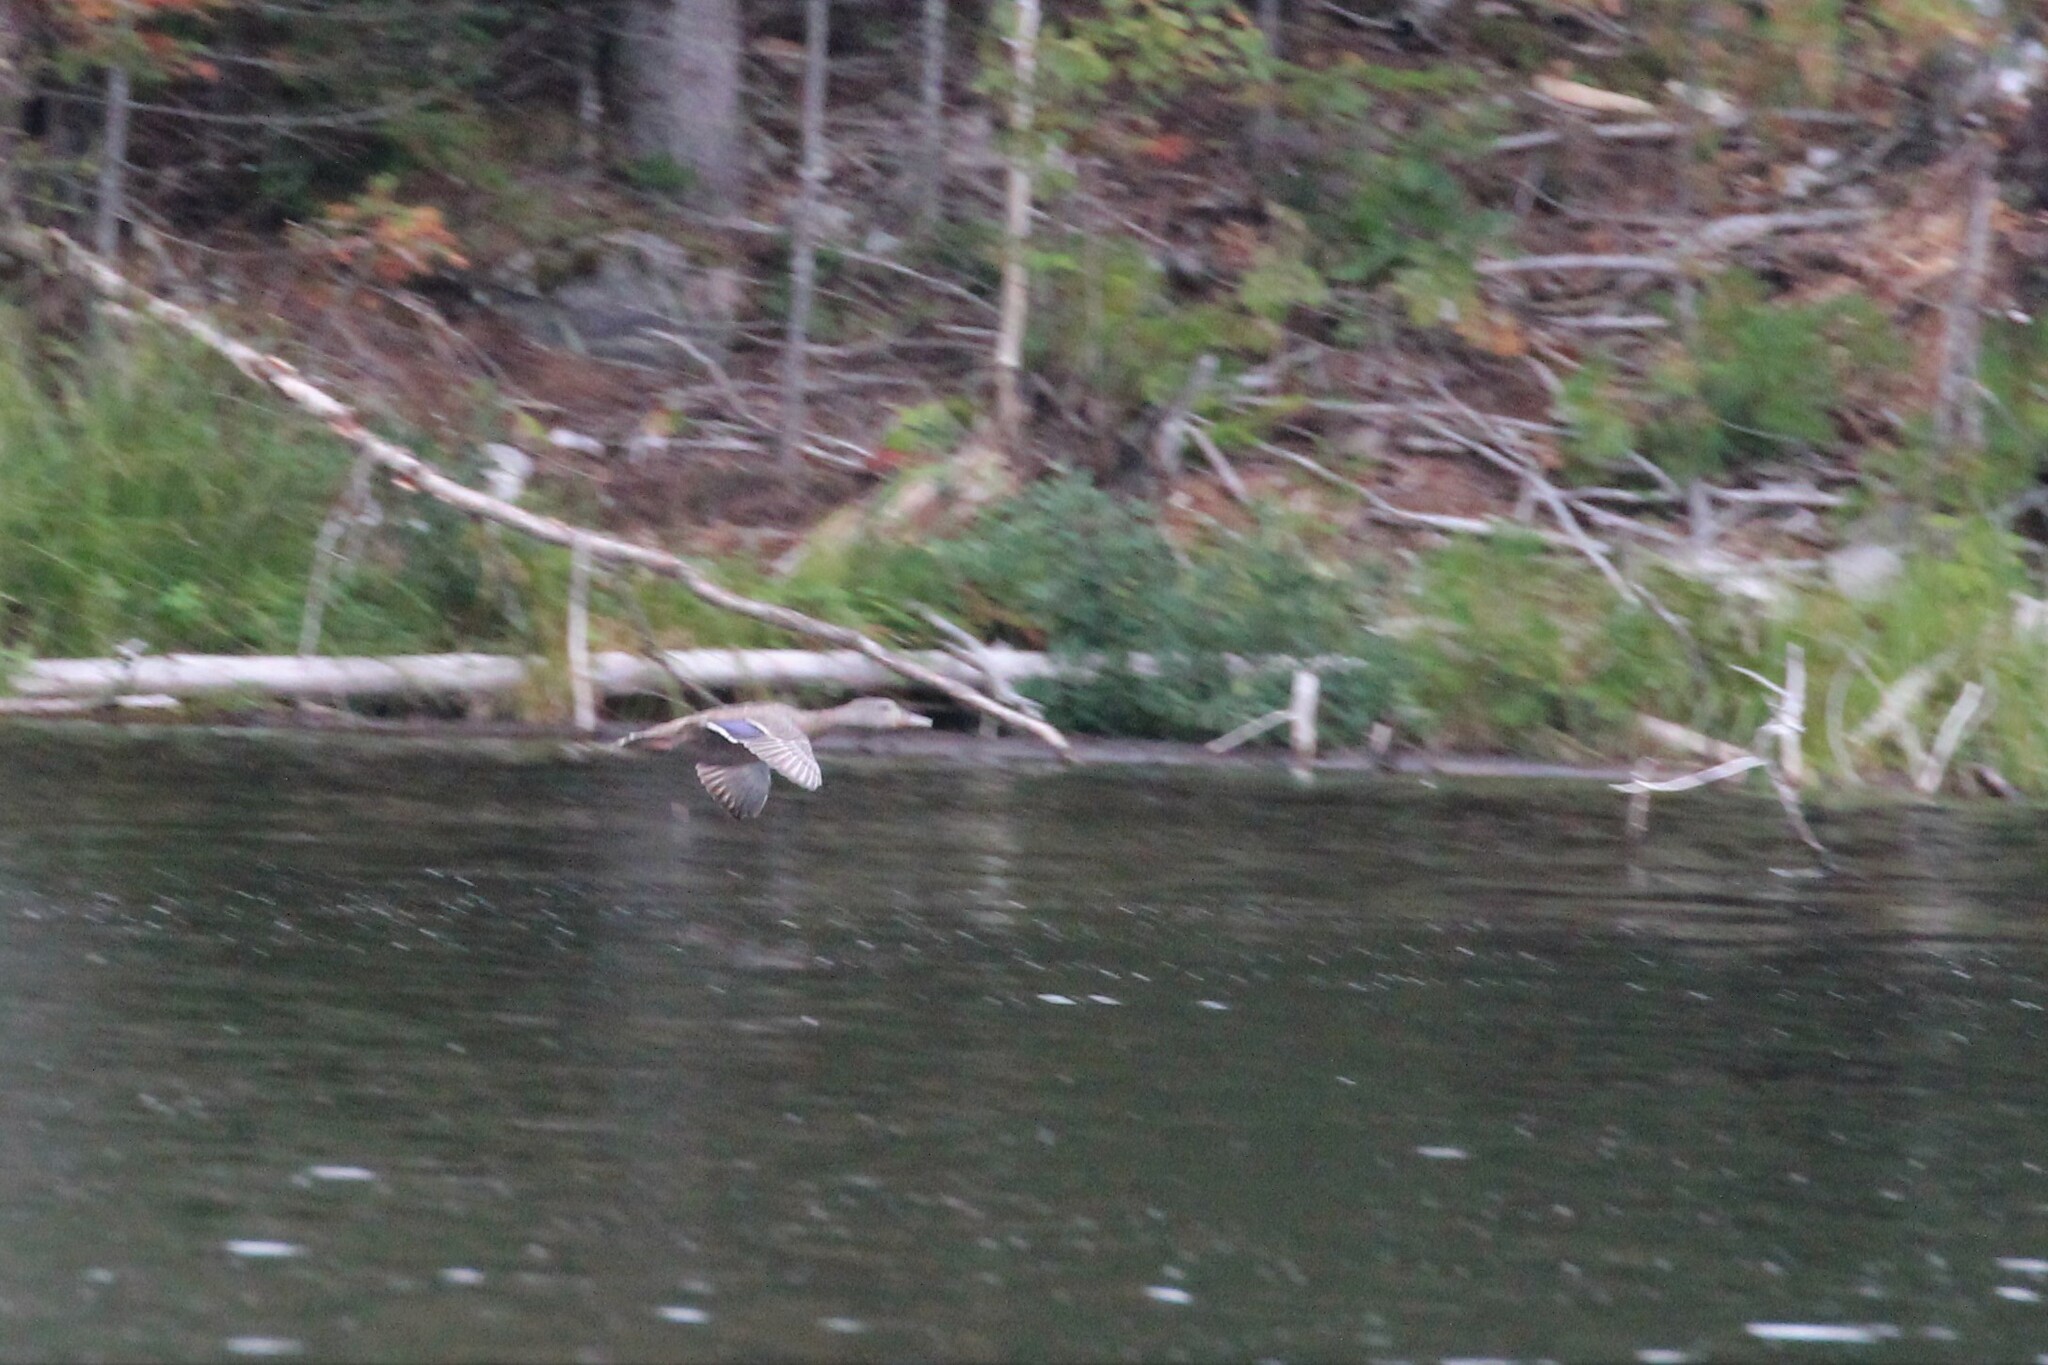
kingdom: Animalia
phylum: Chordata
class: Aves
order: Anseriformes
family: Anatidae
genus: Anas
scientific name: Anas platyrhynchos
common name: Mallard
